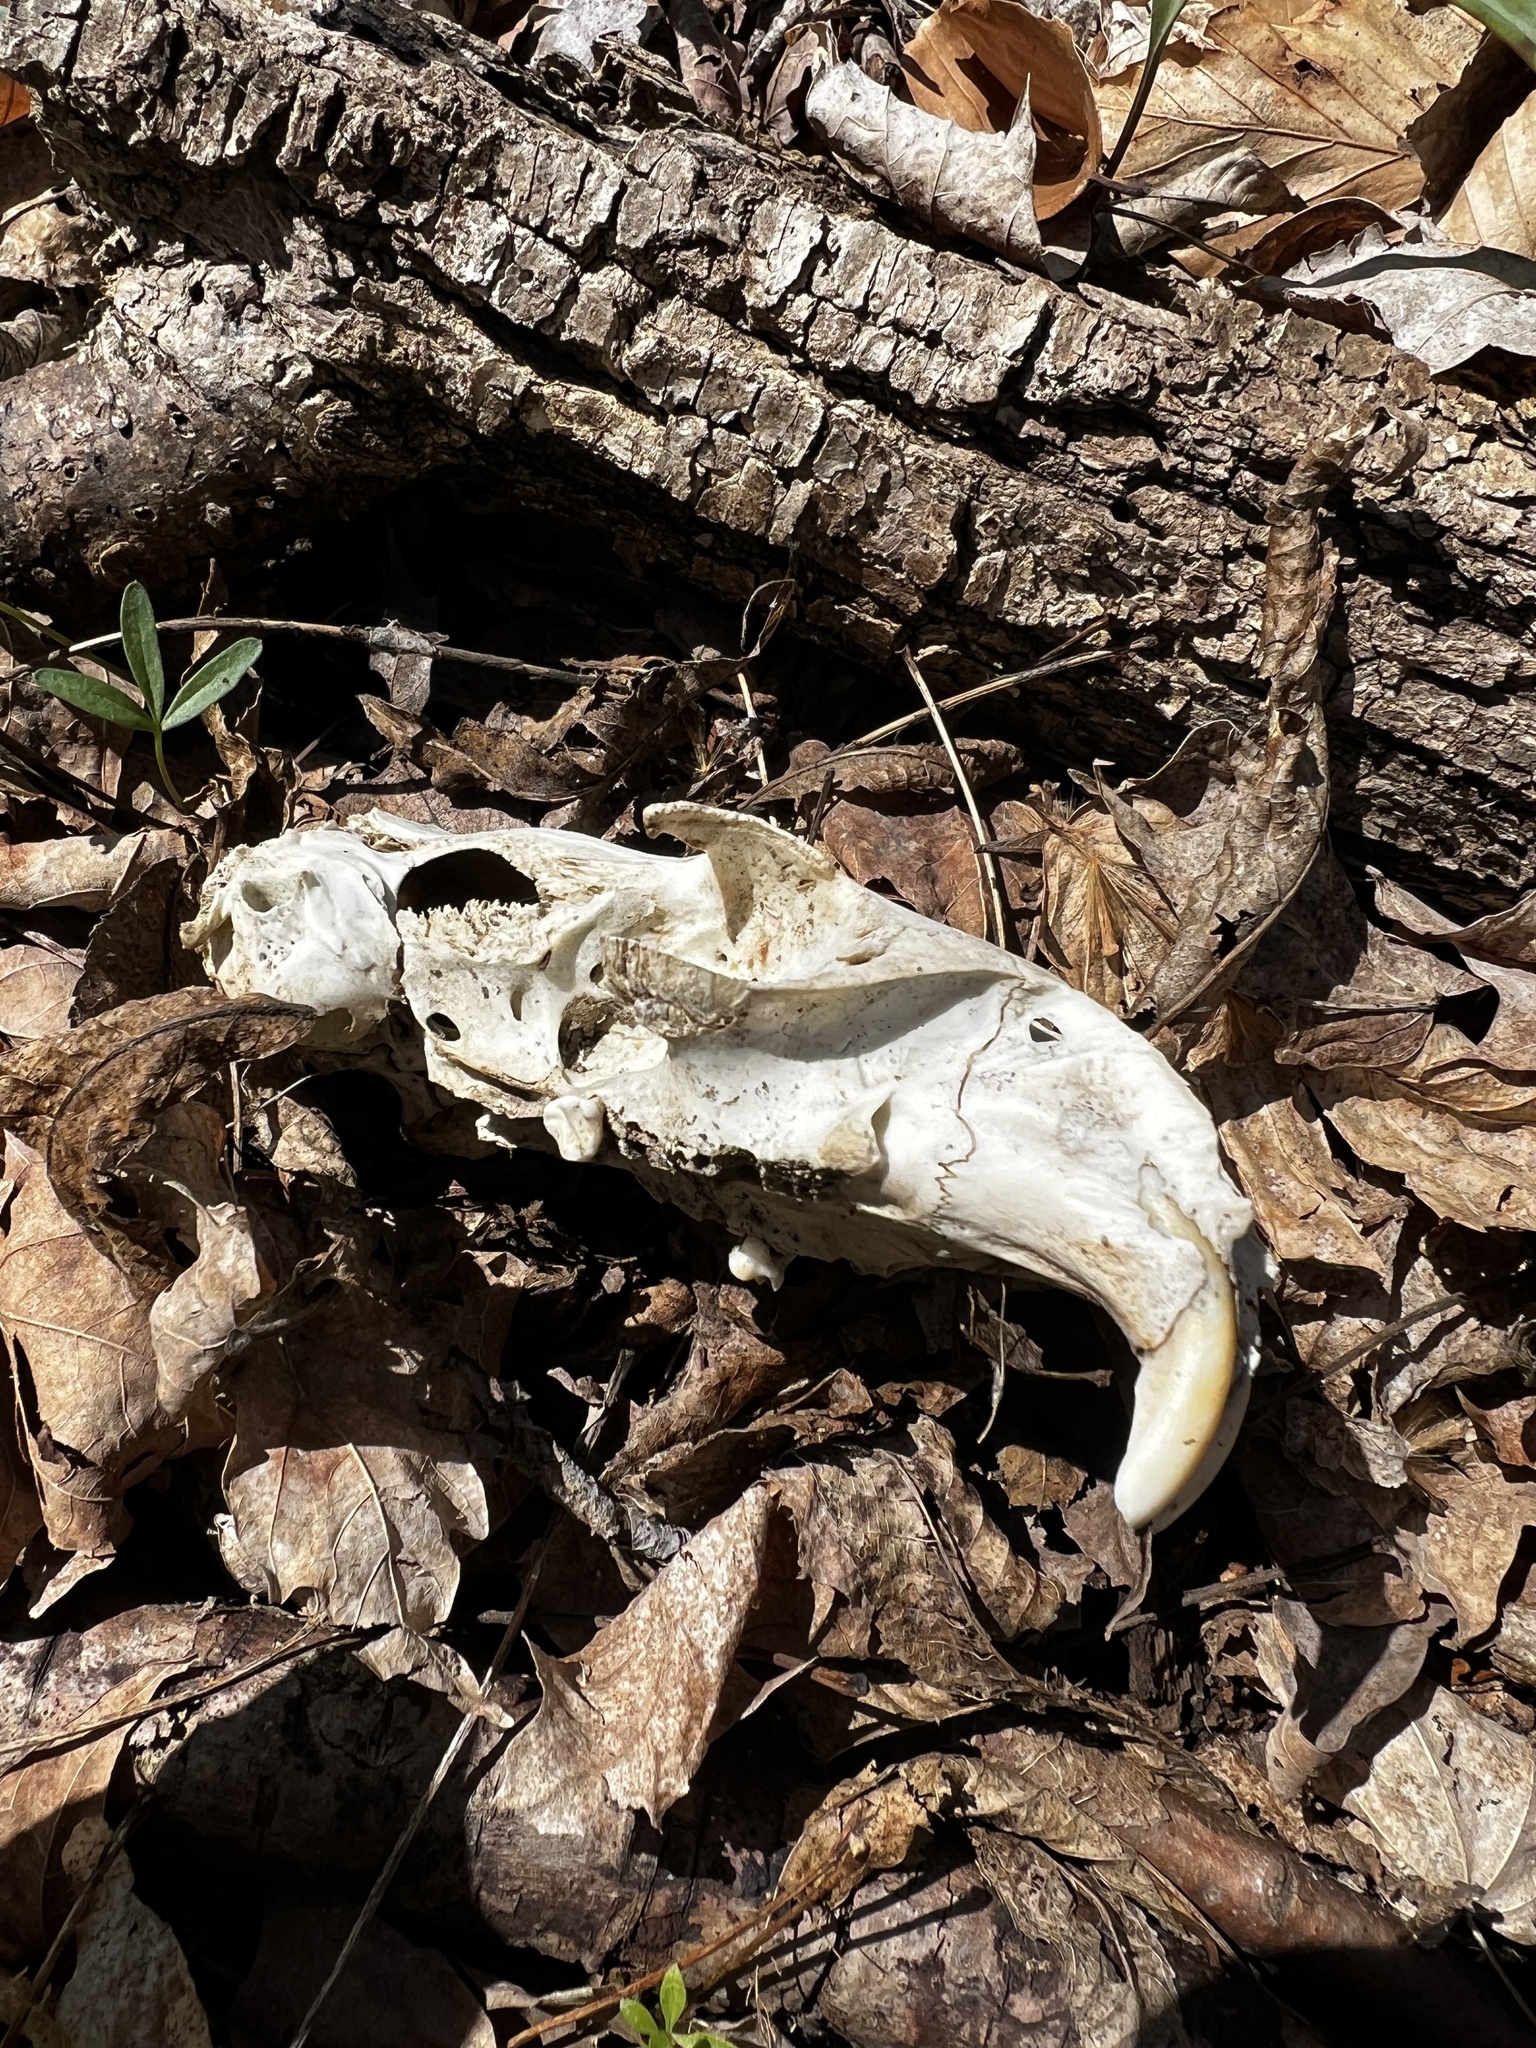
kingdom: Animalia
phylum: Chordata
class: Mammalia
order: Rodentia
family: Sciuridae
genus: Marmota
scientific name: Marmota monax
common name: Groundhog
